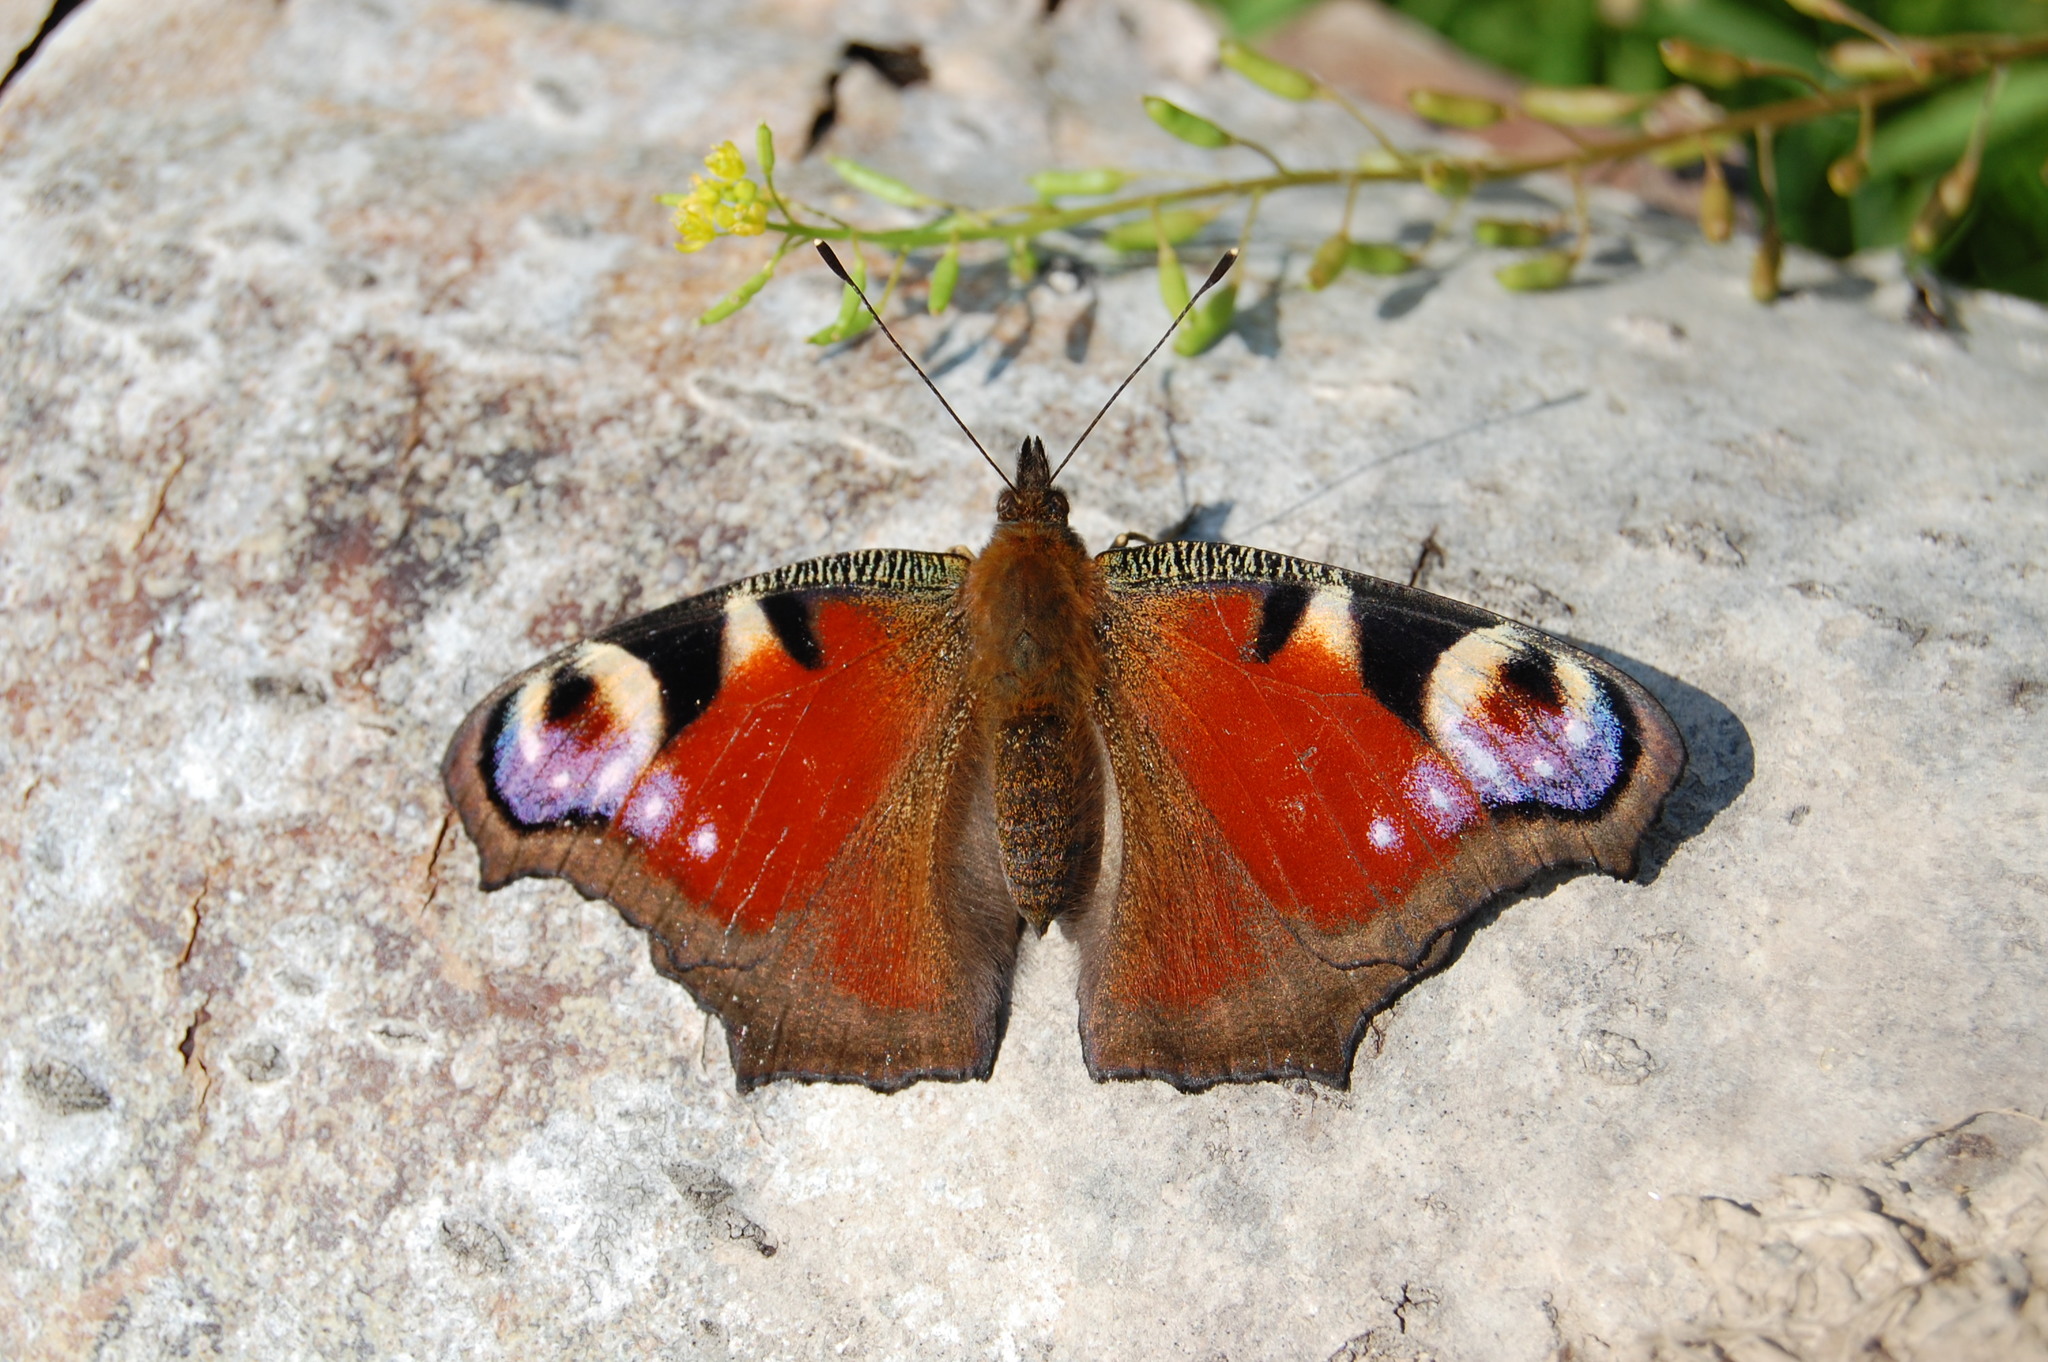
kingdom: Animalia
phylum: Arthropoda
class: Insecta
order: Lepidoptera
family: Nymphalidae
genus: Aglais
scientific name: Aglais io
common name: Peacock
